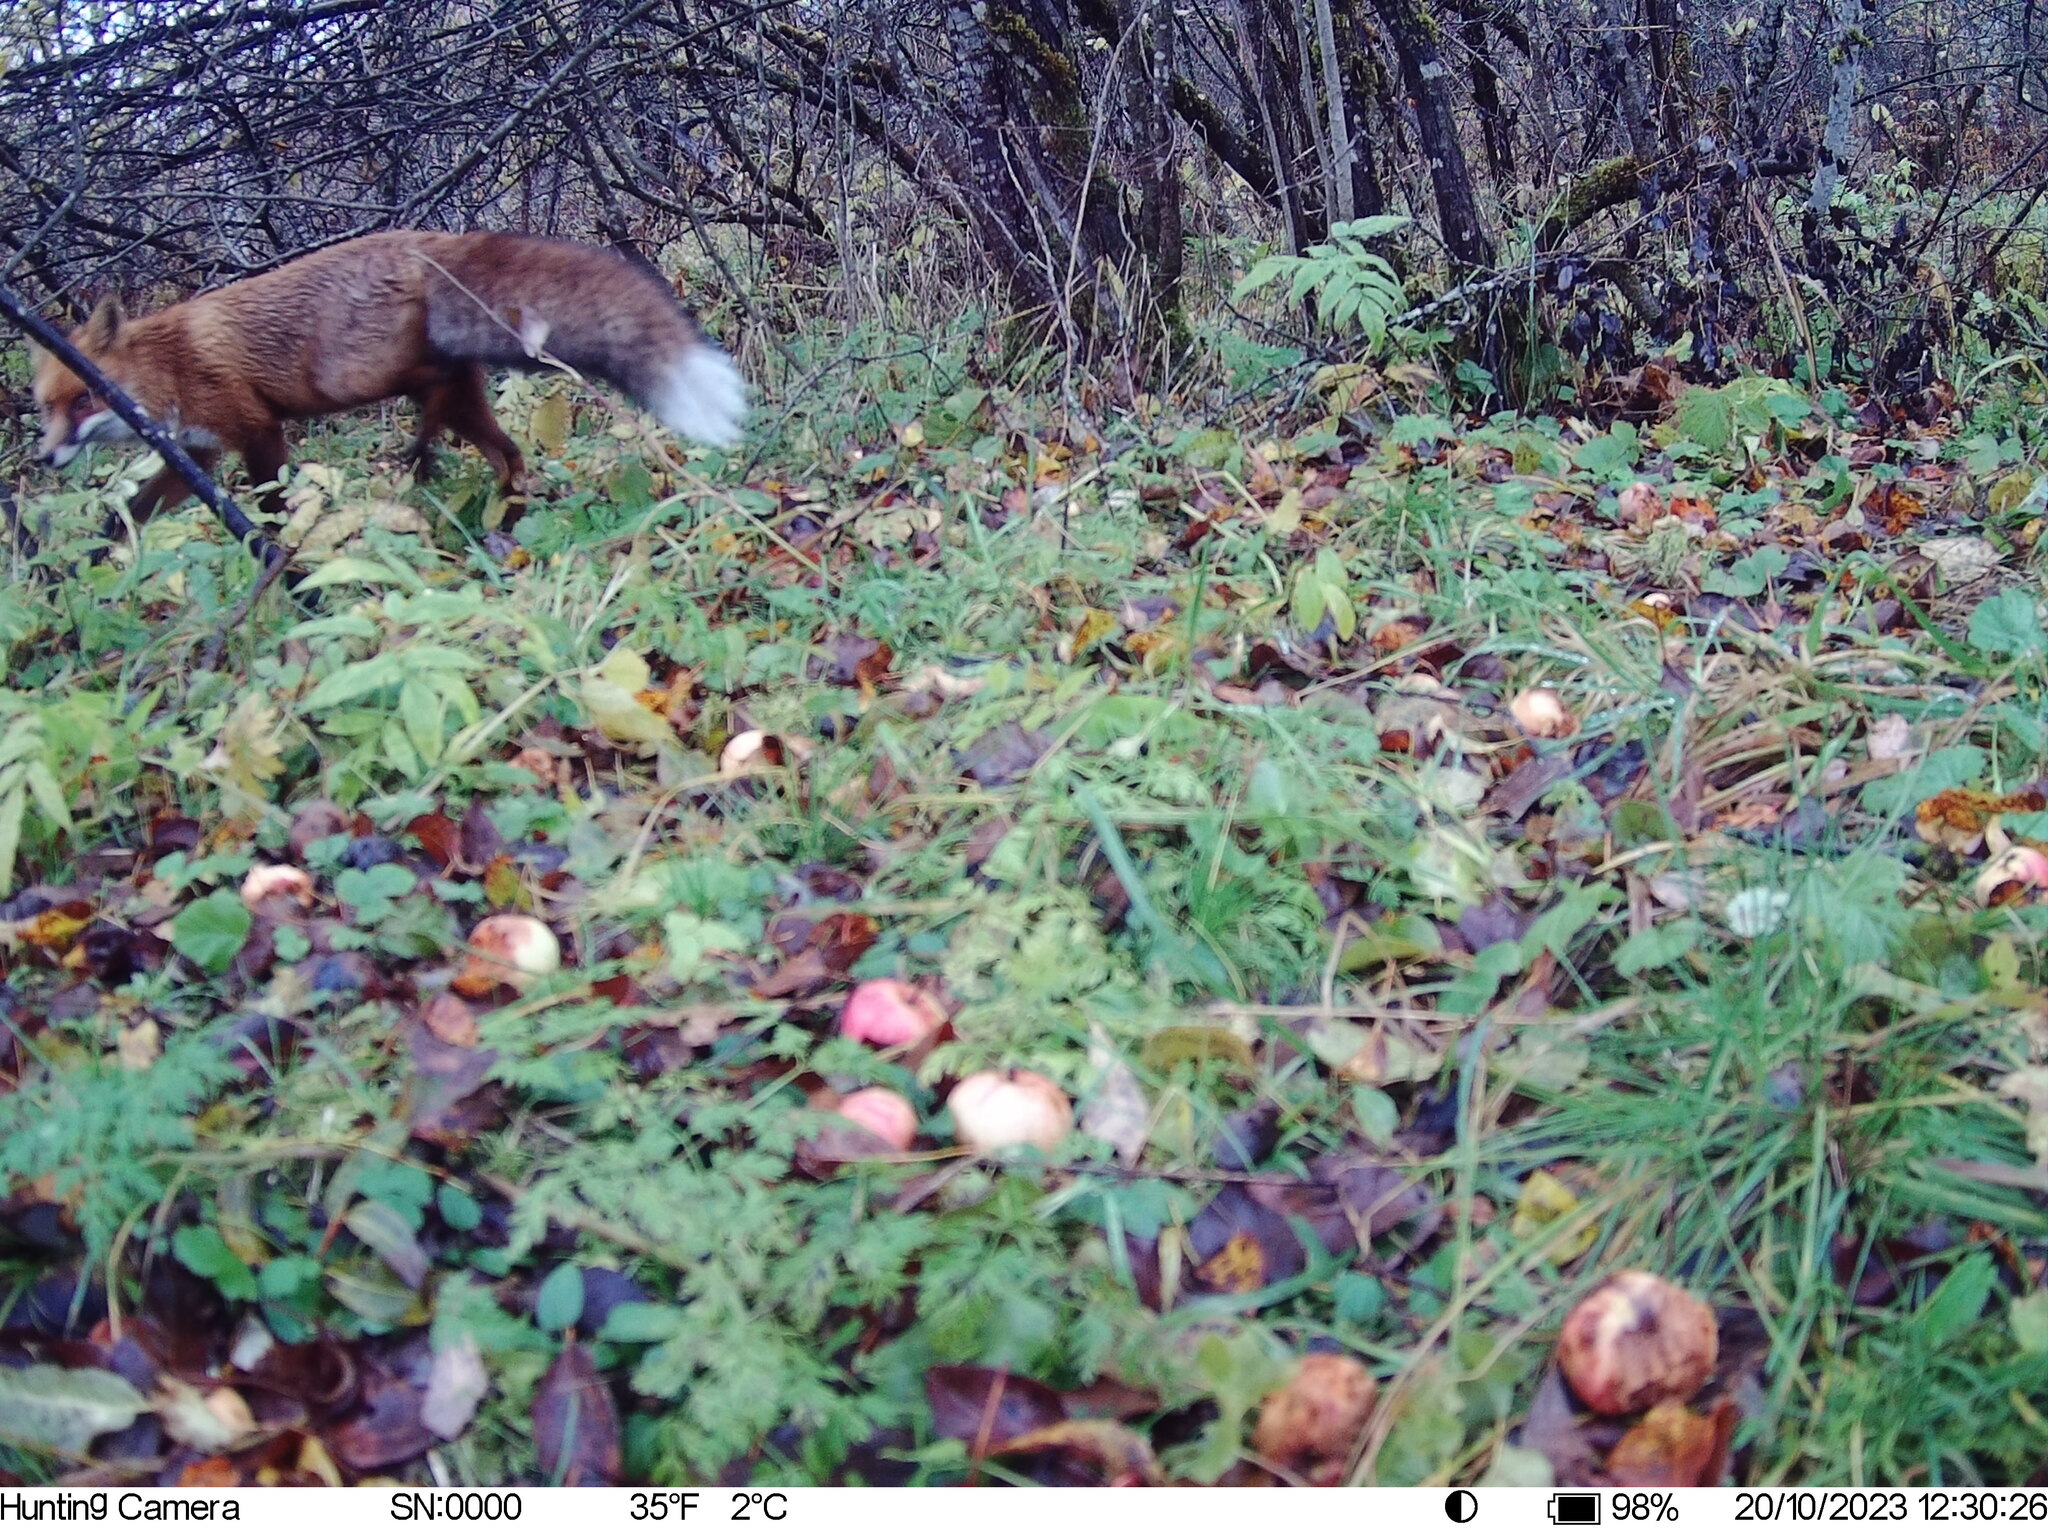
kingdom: Animalia
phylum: Chordata
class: Mammalia
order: Carnivora
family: Canidae
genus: Vulpes
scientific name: Vulpes vulpes
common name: Red fox
